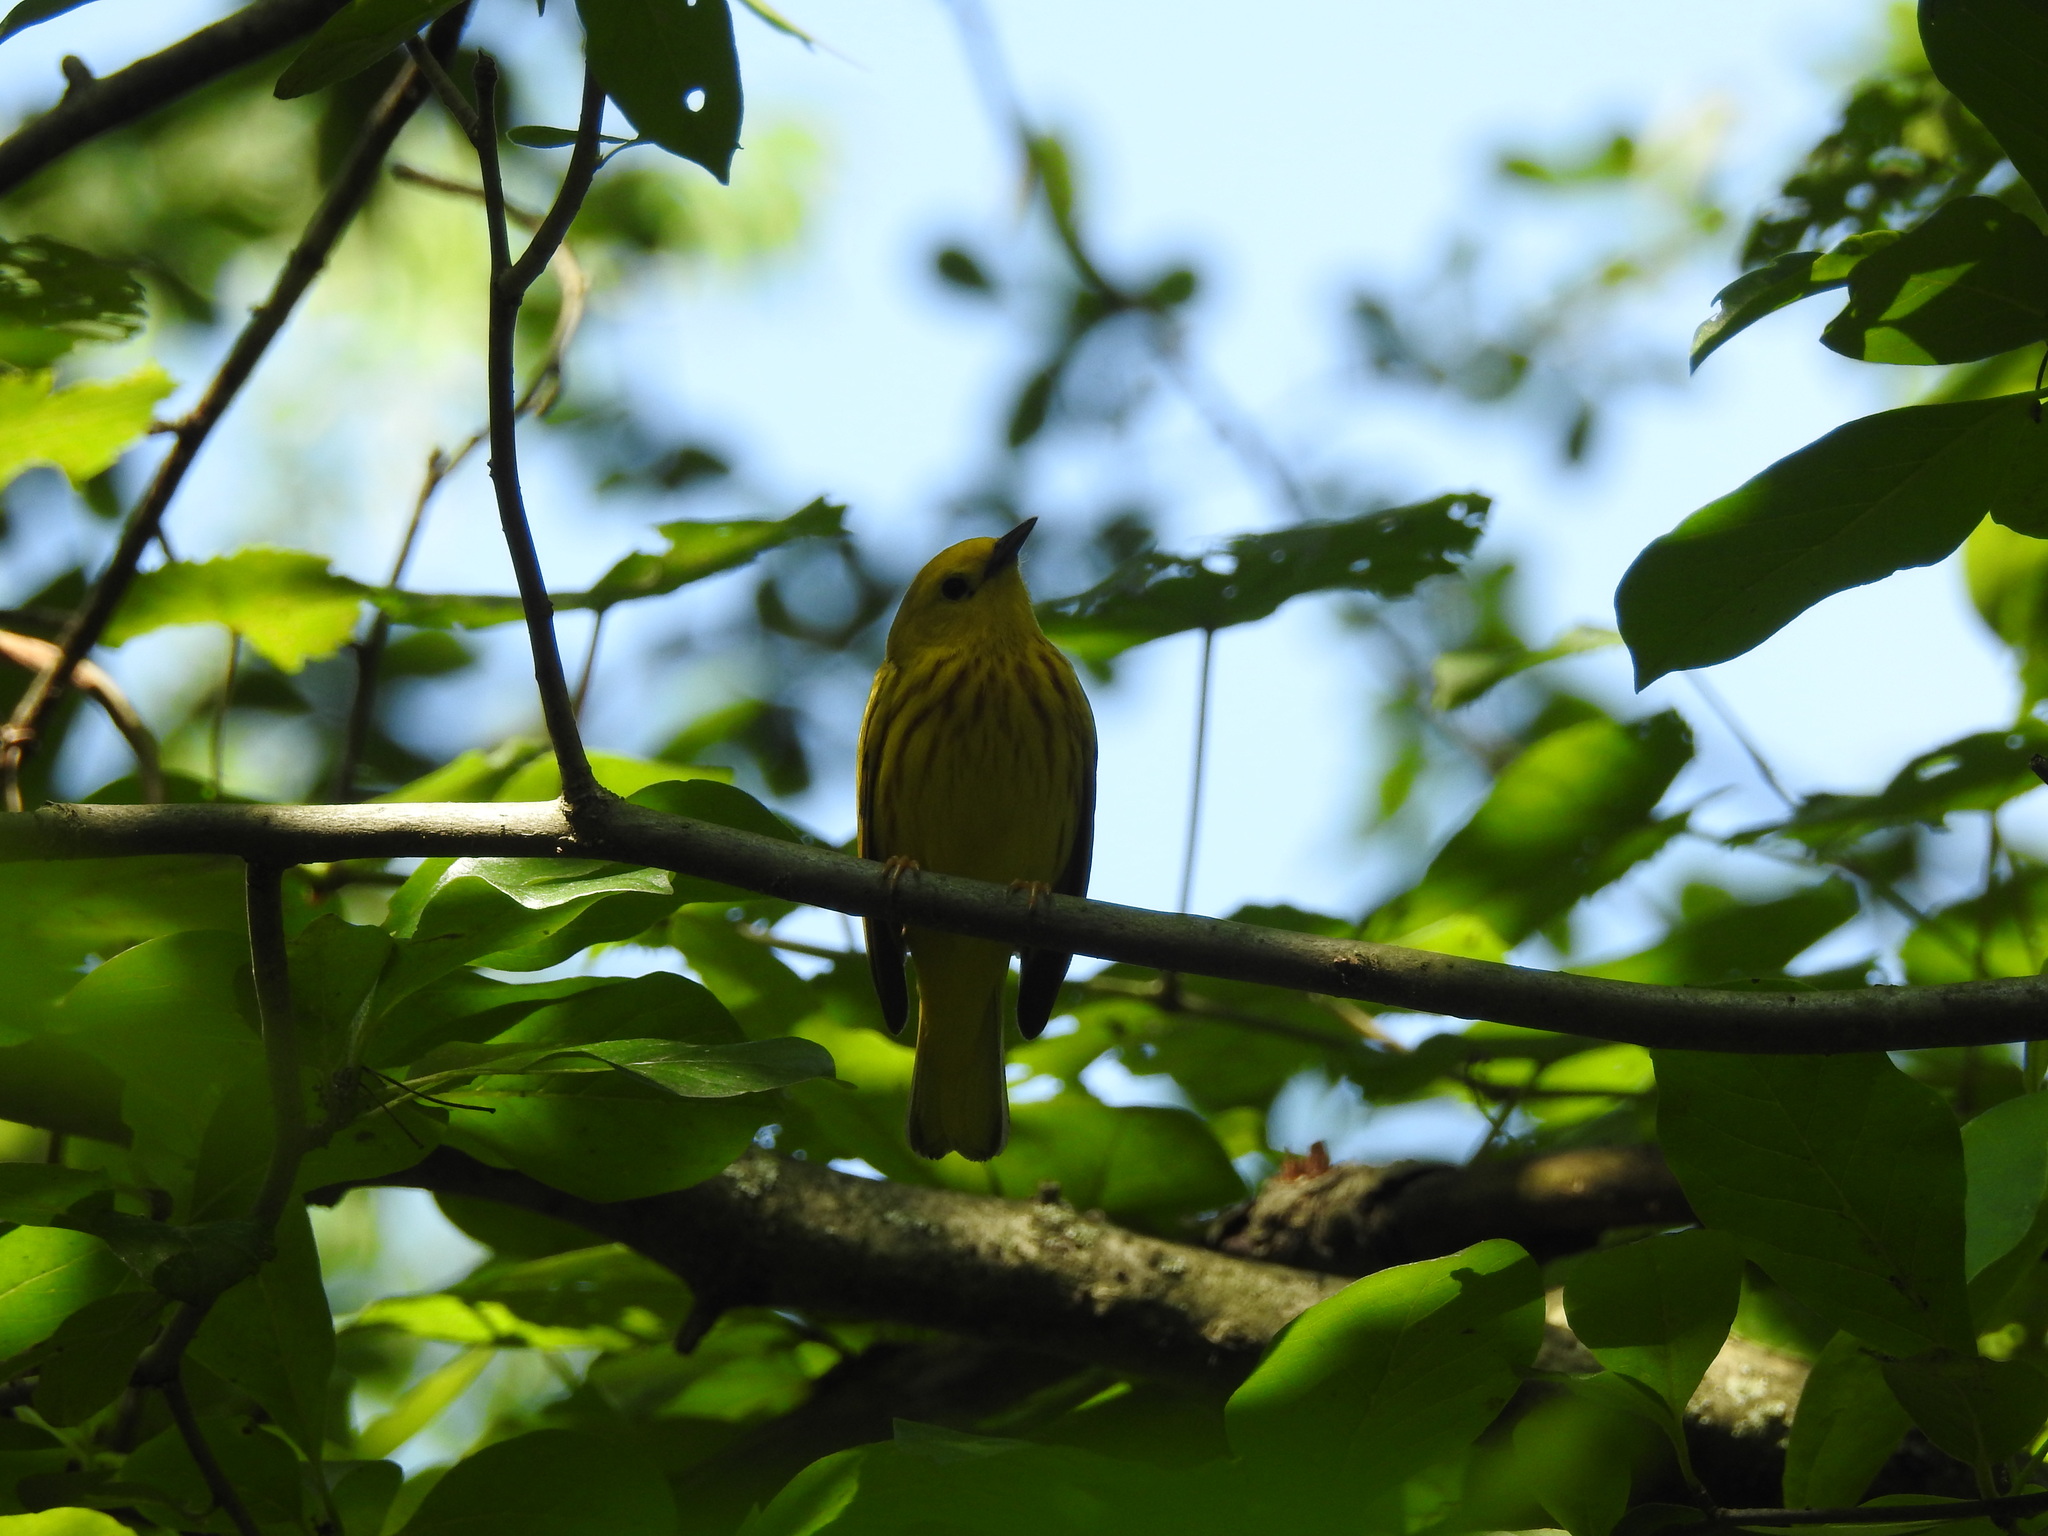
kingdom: Animalia
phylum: Chordata
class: Aves
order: Passeriformes
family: Parulidae
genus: Setophaga
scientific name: Setophaga petechia
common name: Yellow warbler
